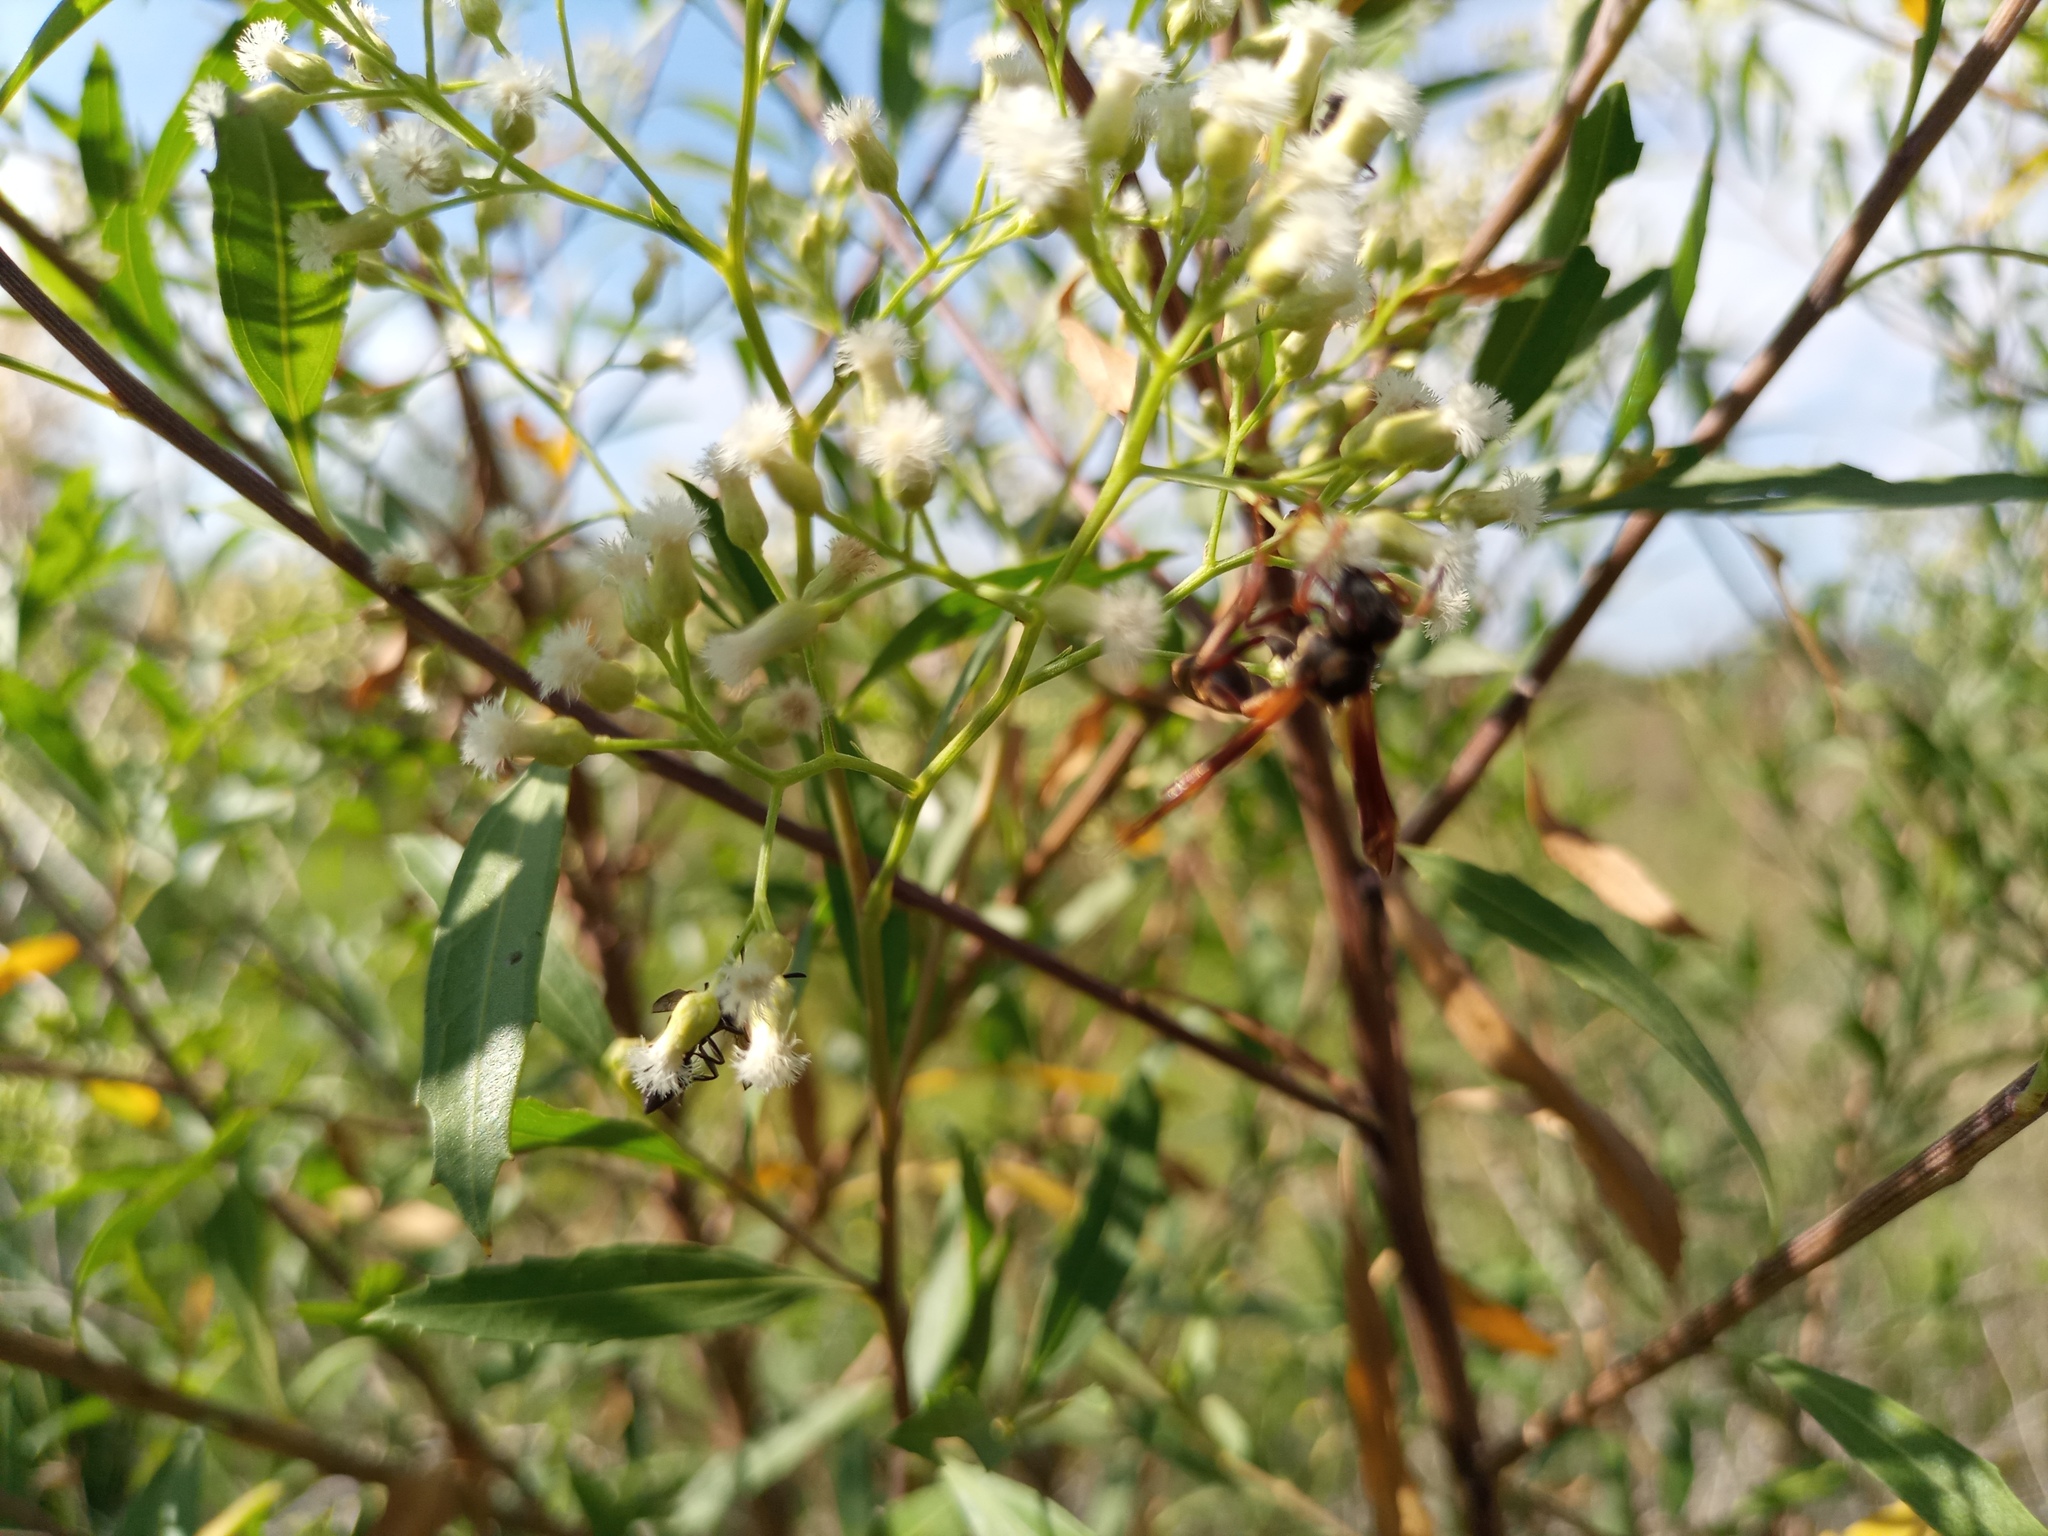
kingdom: Animalia
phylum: Arthropoda
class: Insecta
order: Hymenoptera
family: Vespidae
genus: Mischocyttarus
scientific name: Mischocyttarus drewseni
